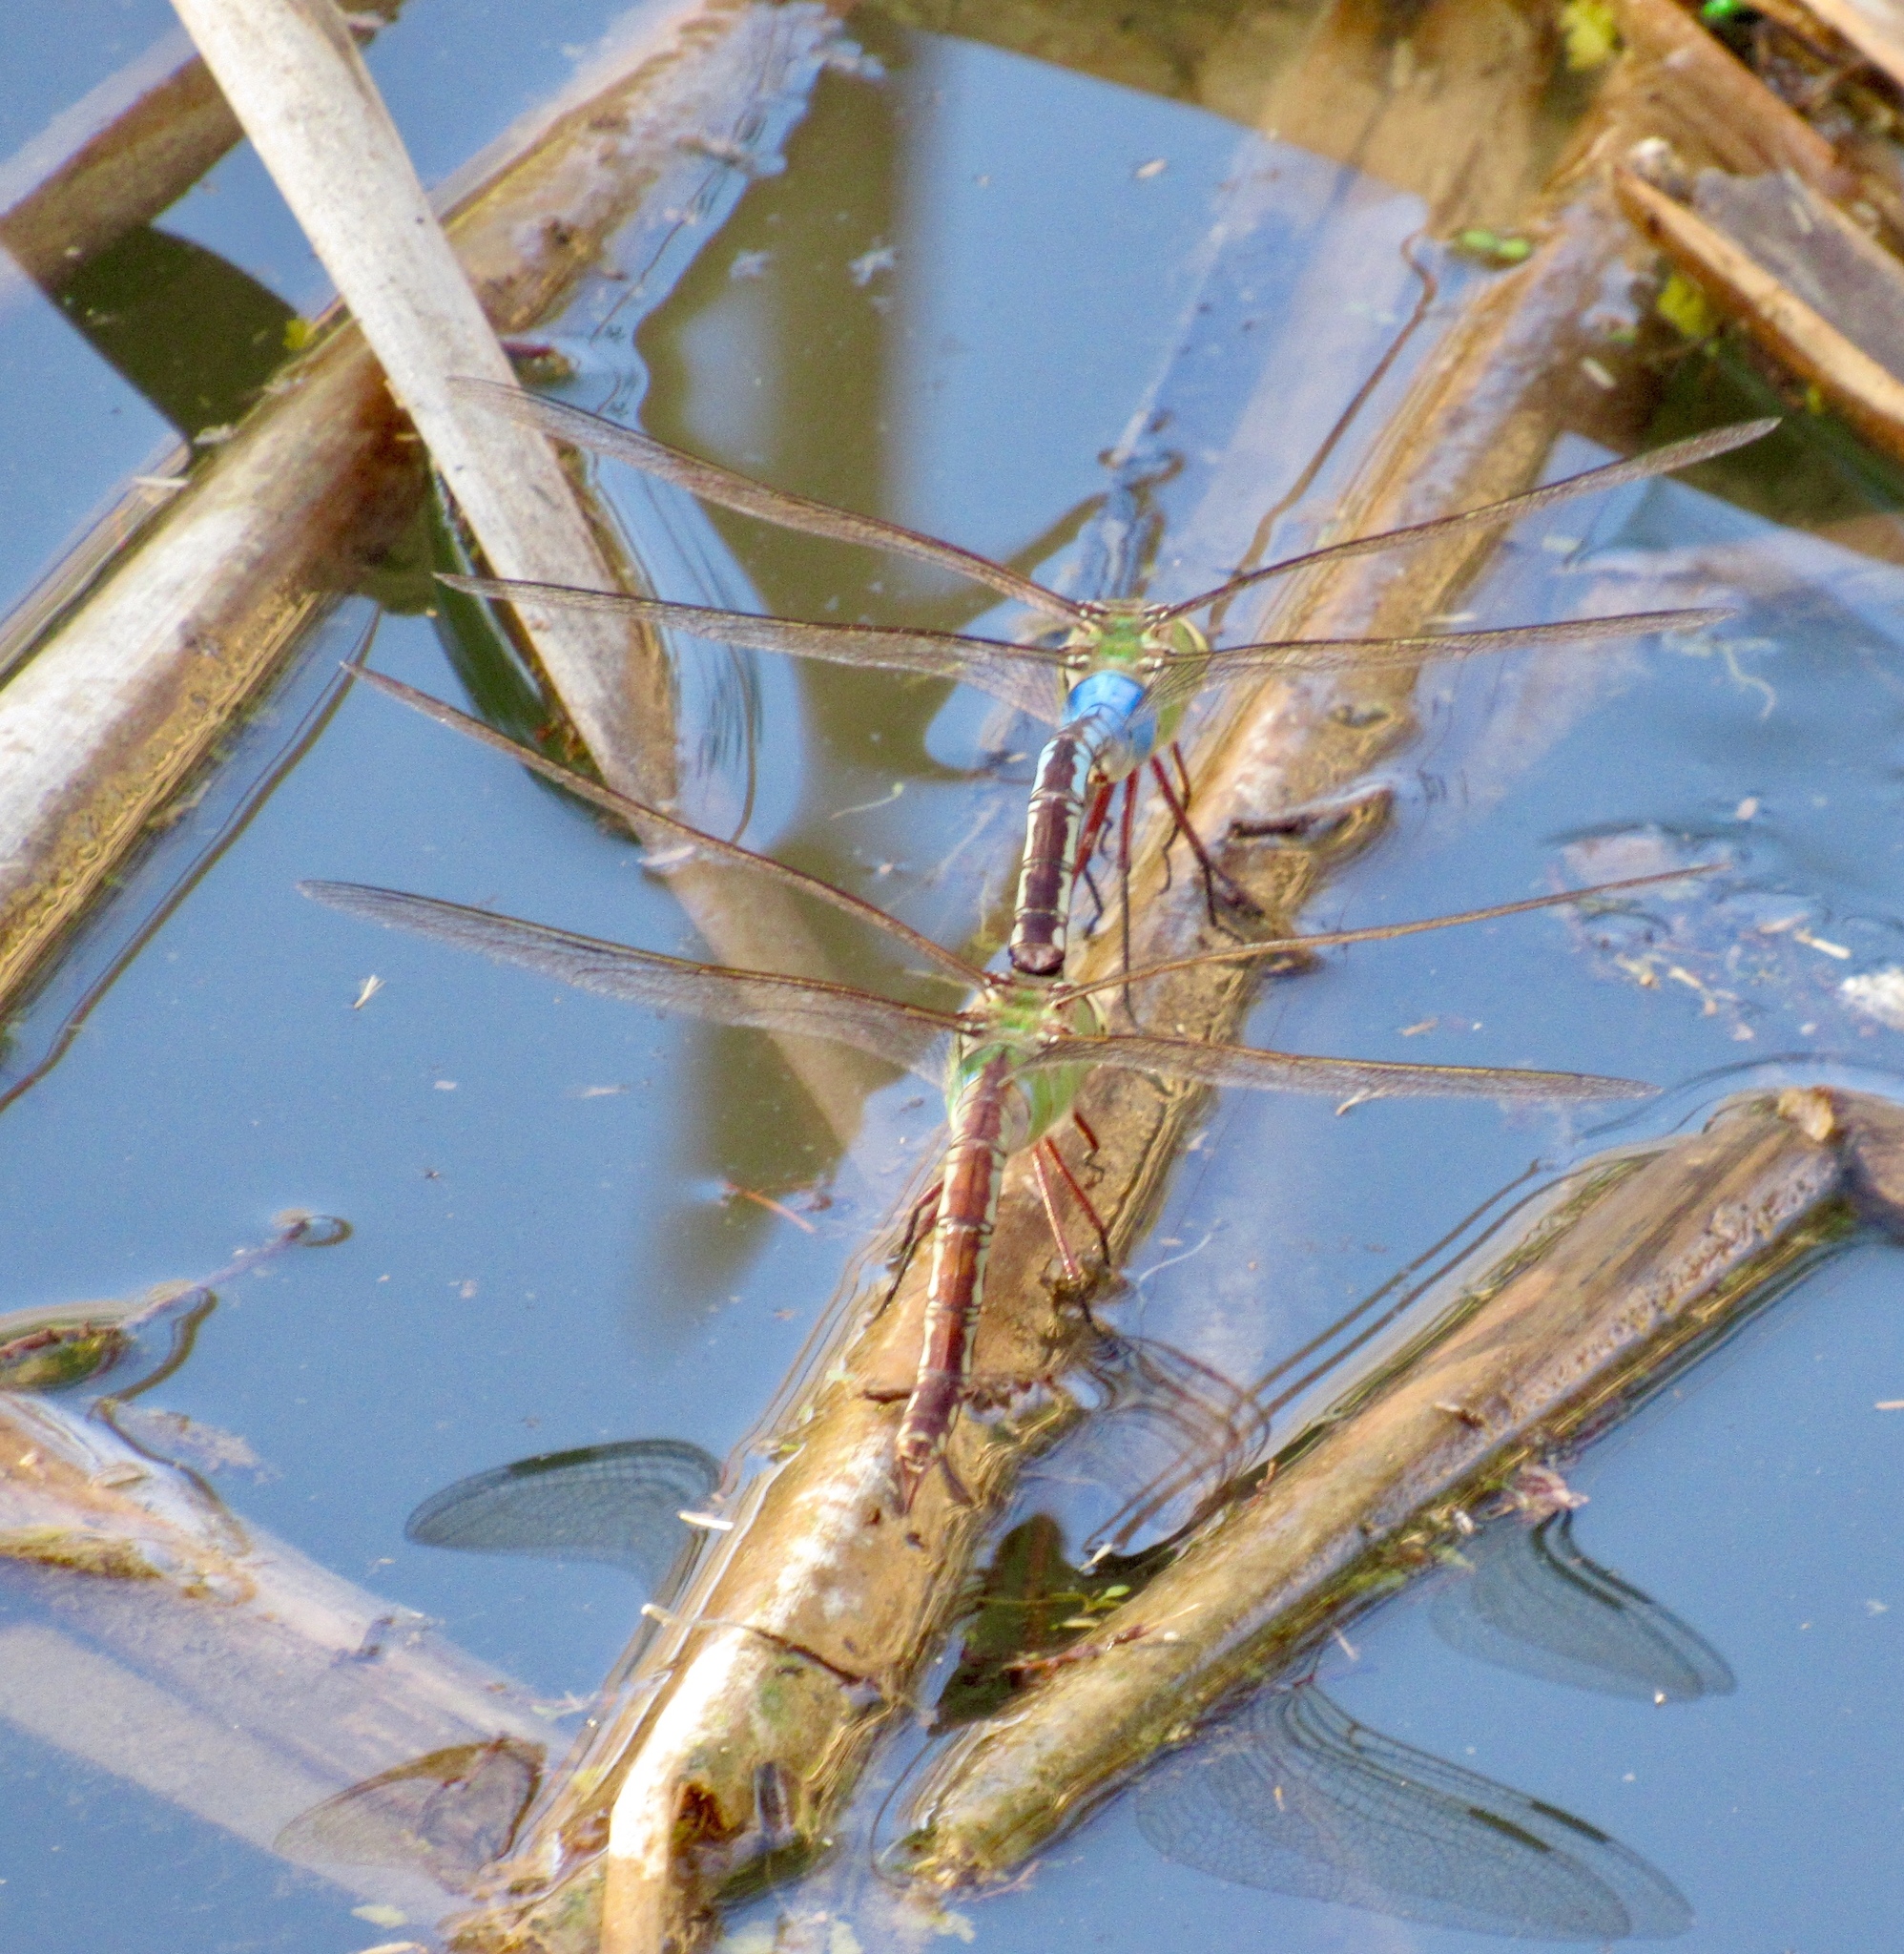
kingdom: Animalia
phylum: Arthropoda
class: Insecta
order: Odonata
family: Aeshnidae
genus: Anax
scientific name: Anax junius
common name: Common green darner
